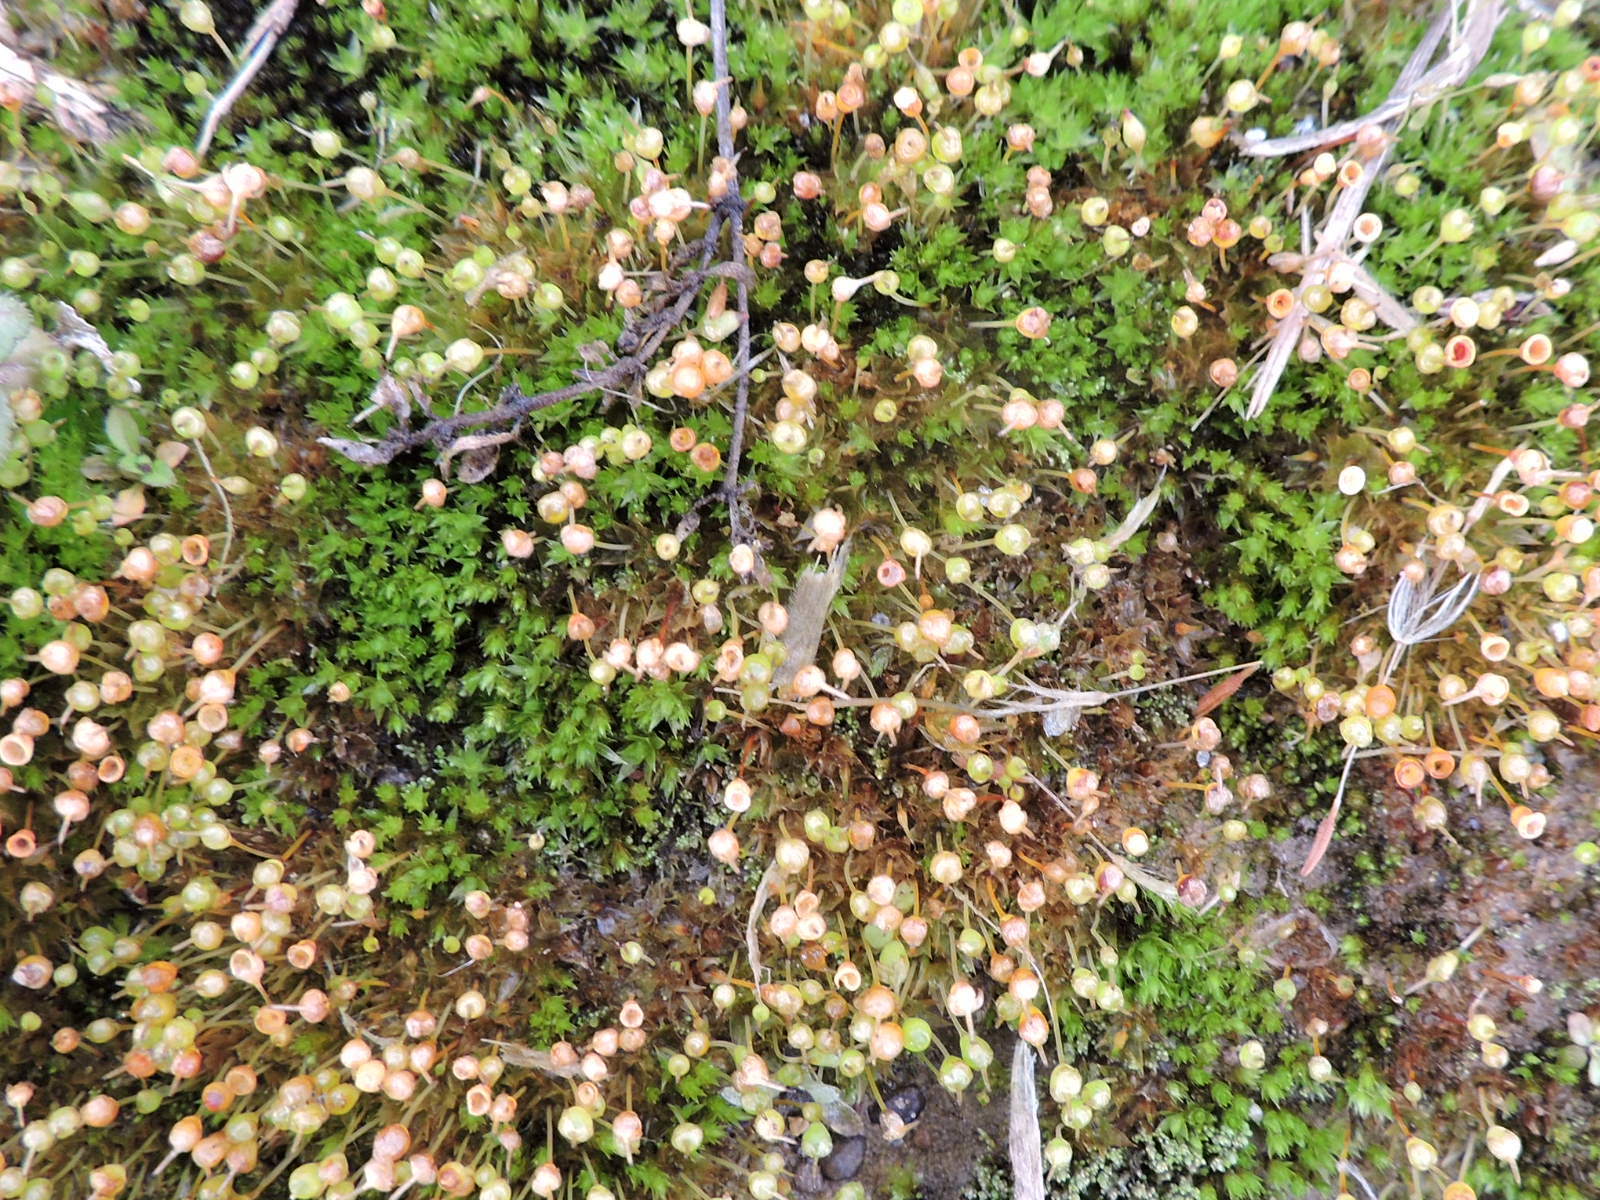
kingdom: Plantae
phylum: Bryophyta
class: Bryopsida
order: Funariales
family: Funariaceae
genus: Physcomitrium
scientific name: Physcomitrium pyriforme
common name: Common bladder-moss
